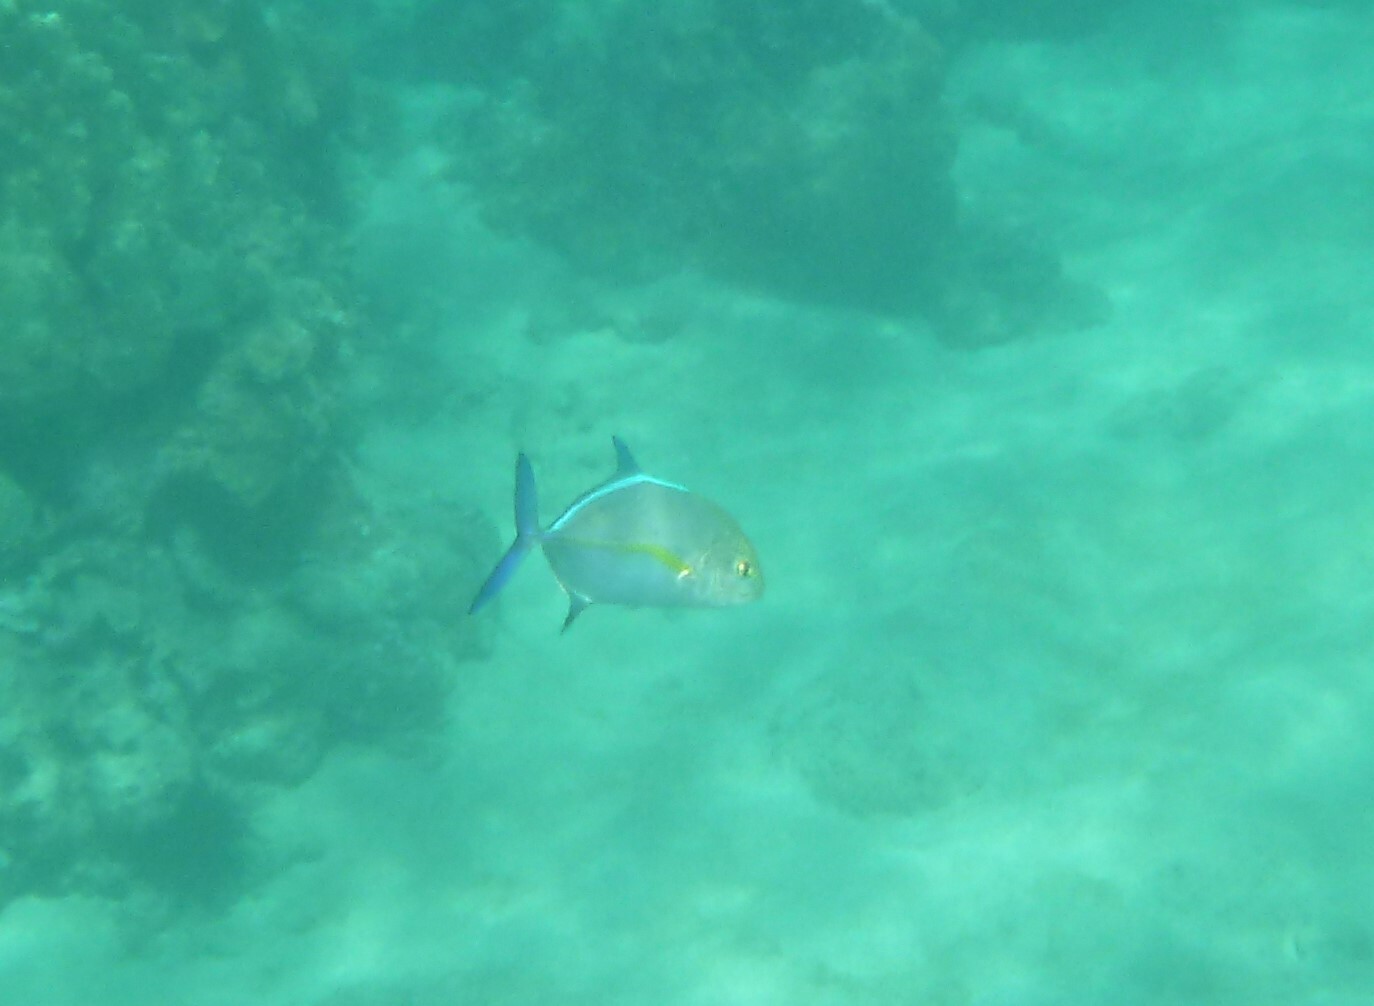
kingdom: Animalia
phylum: Chordata
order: Perciformes
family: Carangidae
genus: Caranx
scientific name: Caranx melampygus
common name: Bluefin trevally
